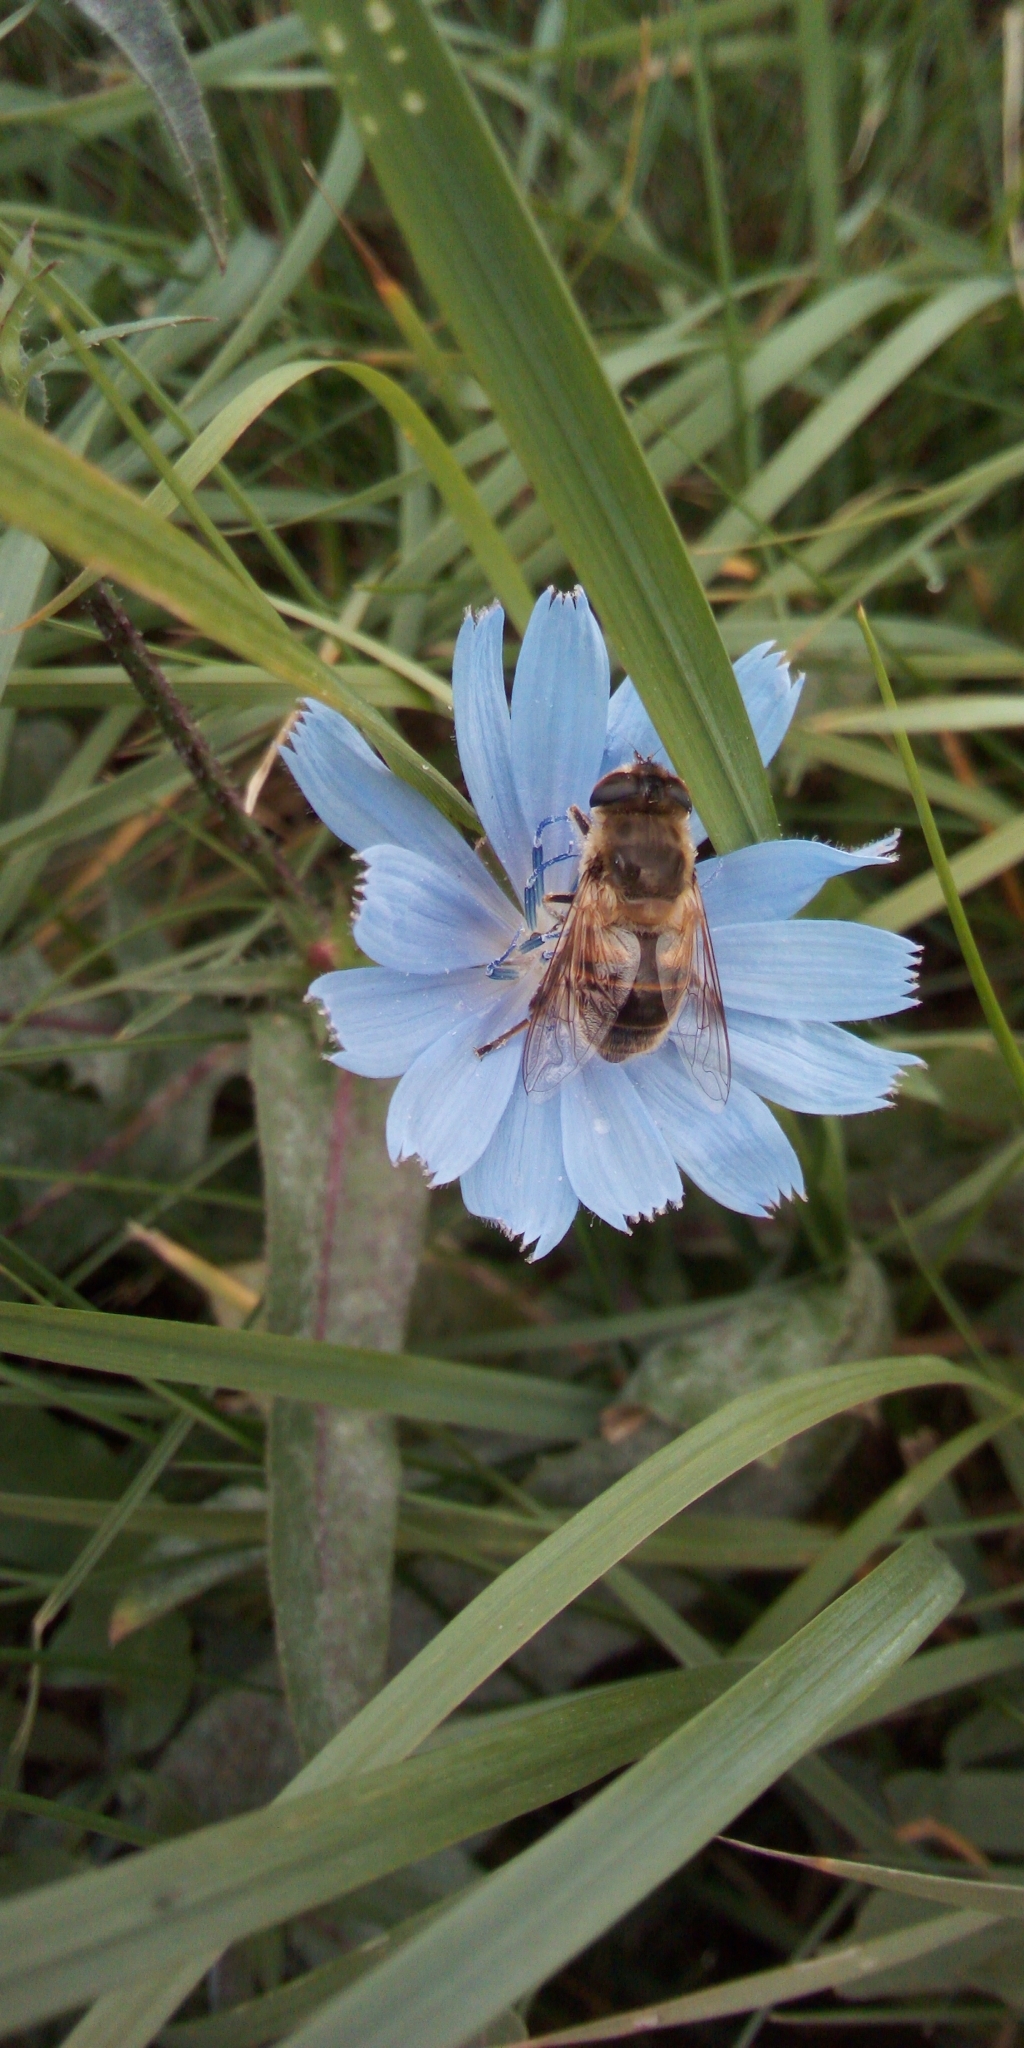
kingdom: Animalia
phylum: Arthropoda
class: Insecta
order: Diptera
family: Syrphidae
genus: Eristalis
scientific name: Eristalis tenax
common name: Drone fly
